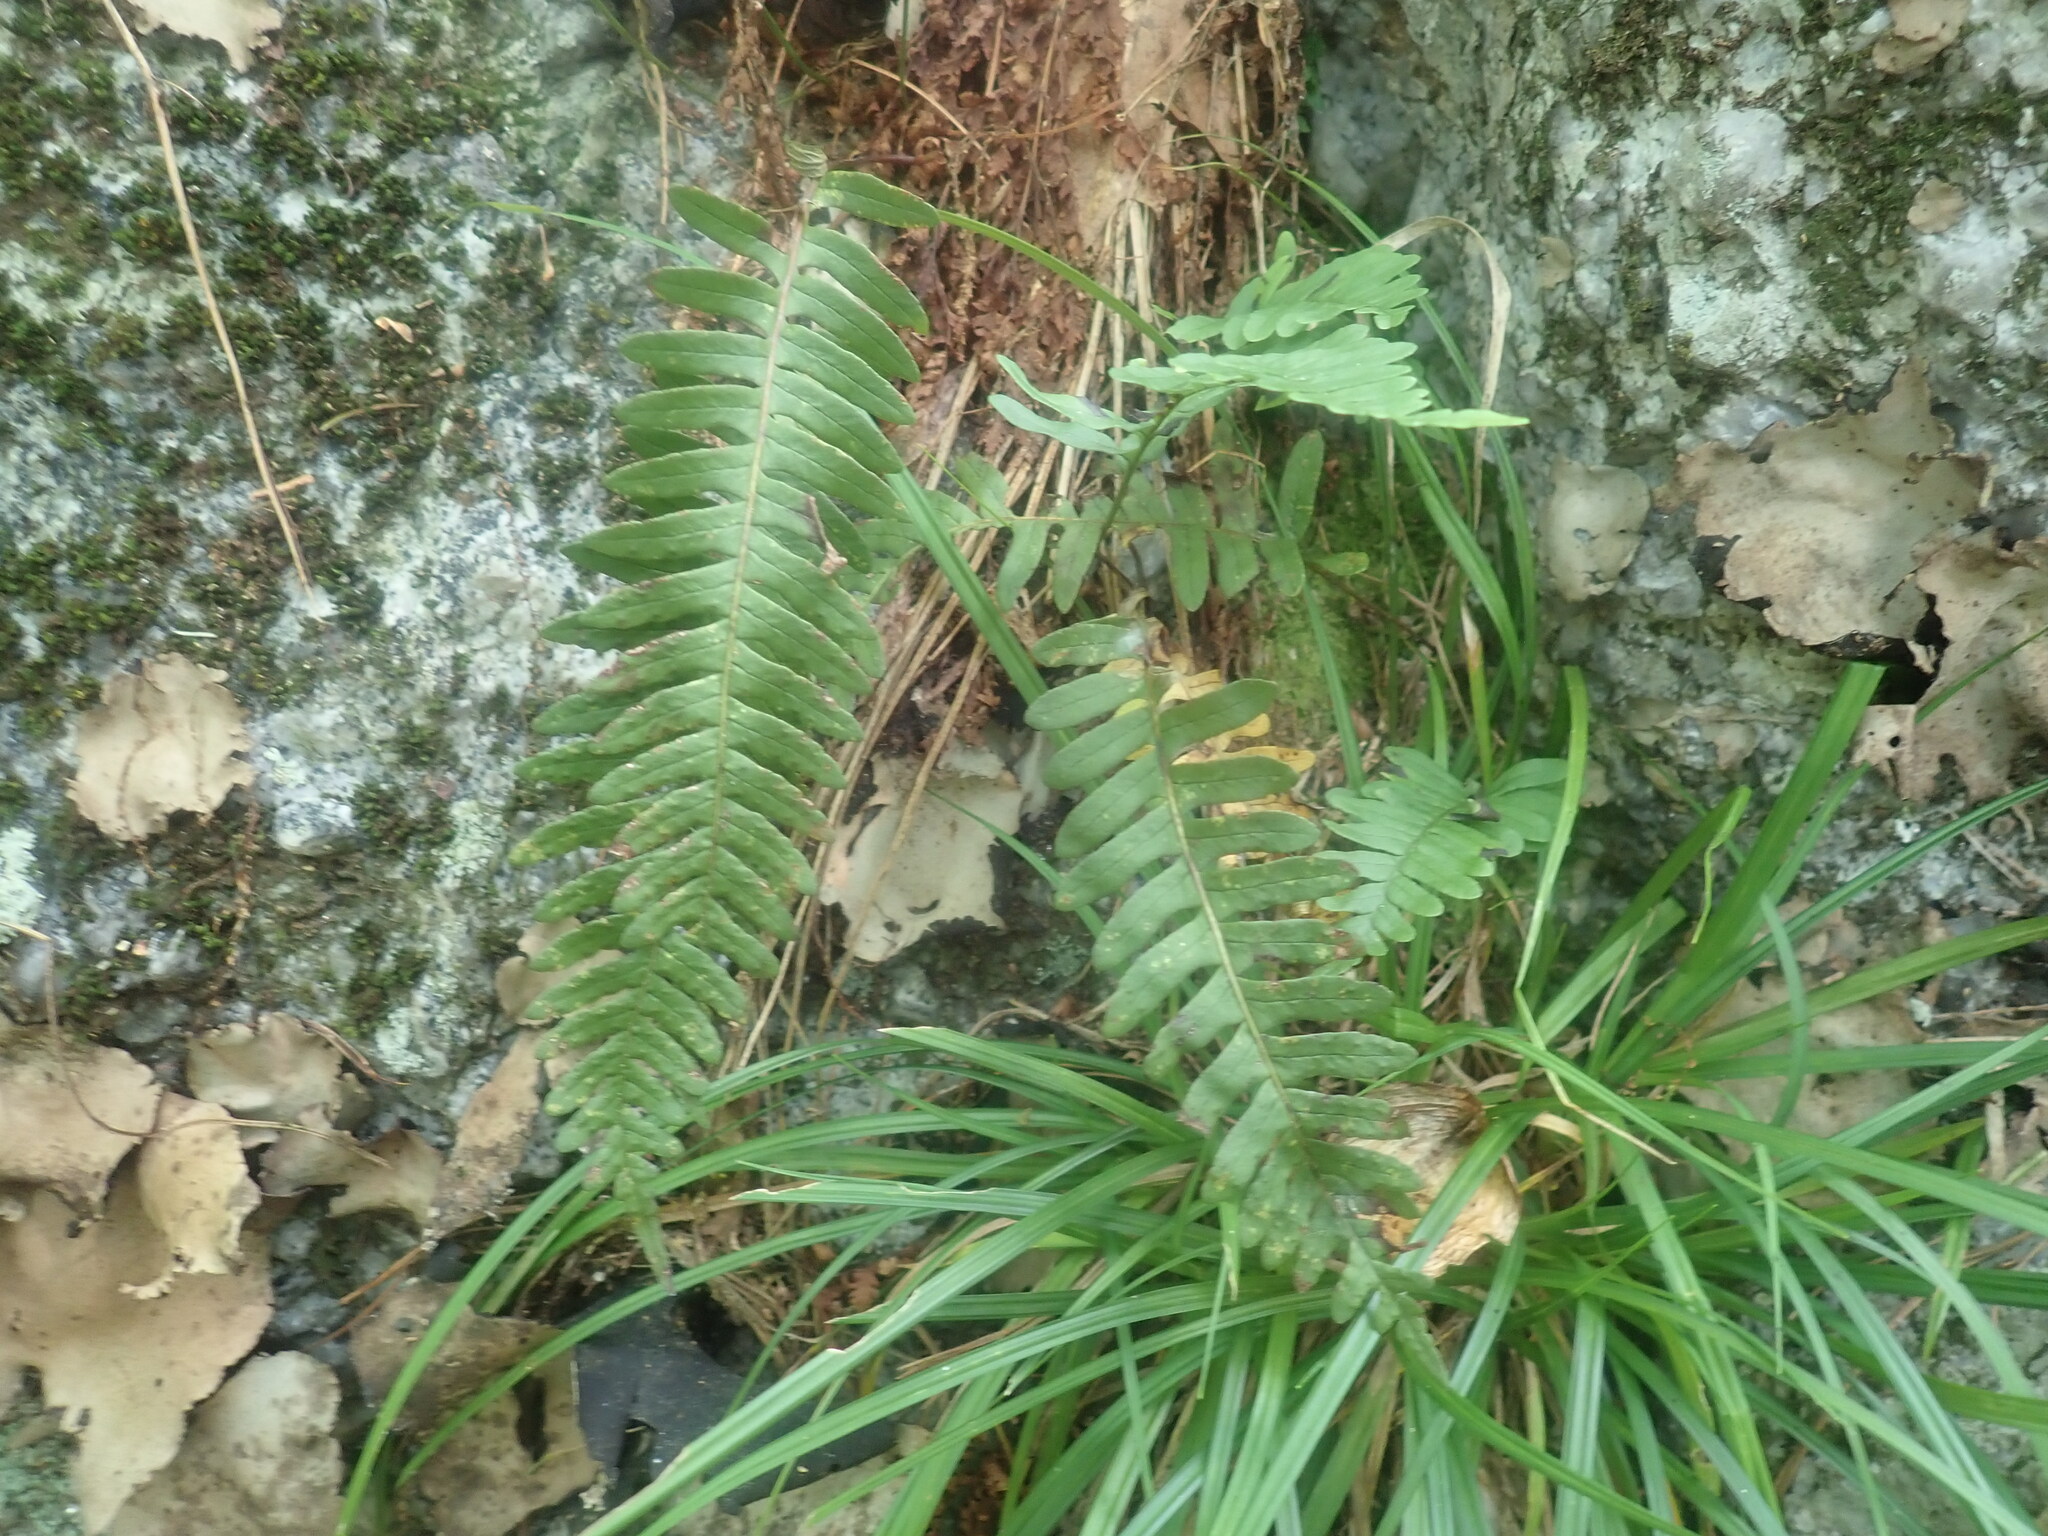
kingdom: Plantae
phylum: Tracheophyta
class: Polypodiopsida
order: Polypodiales
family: Polypodiaceae
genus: Polypodium
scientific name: Polypodium
